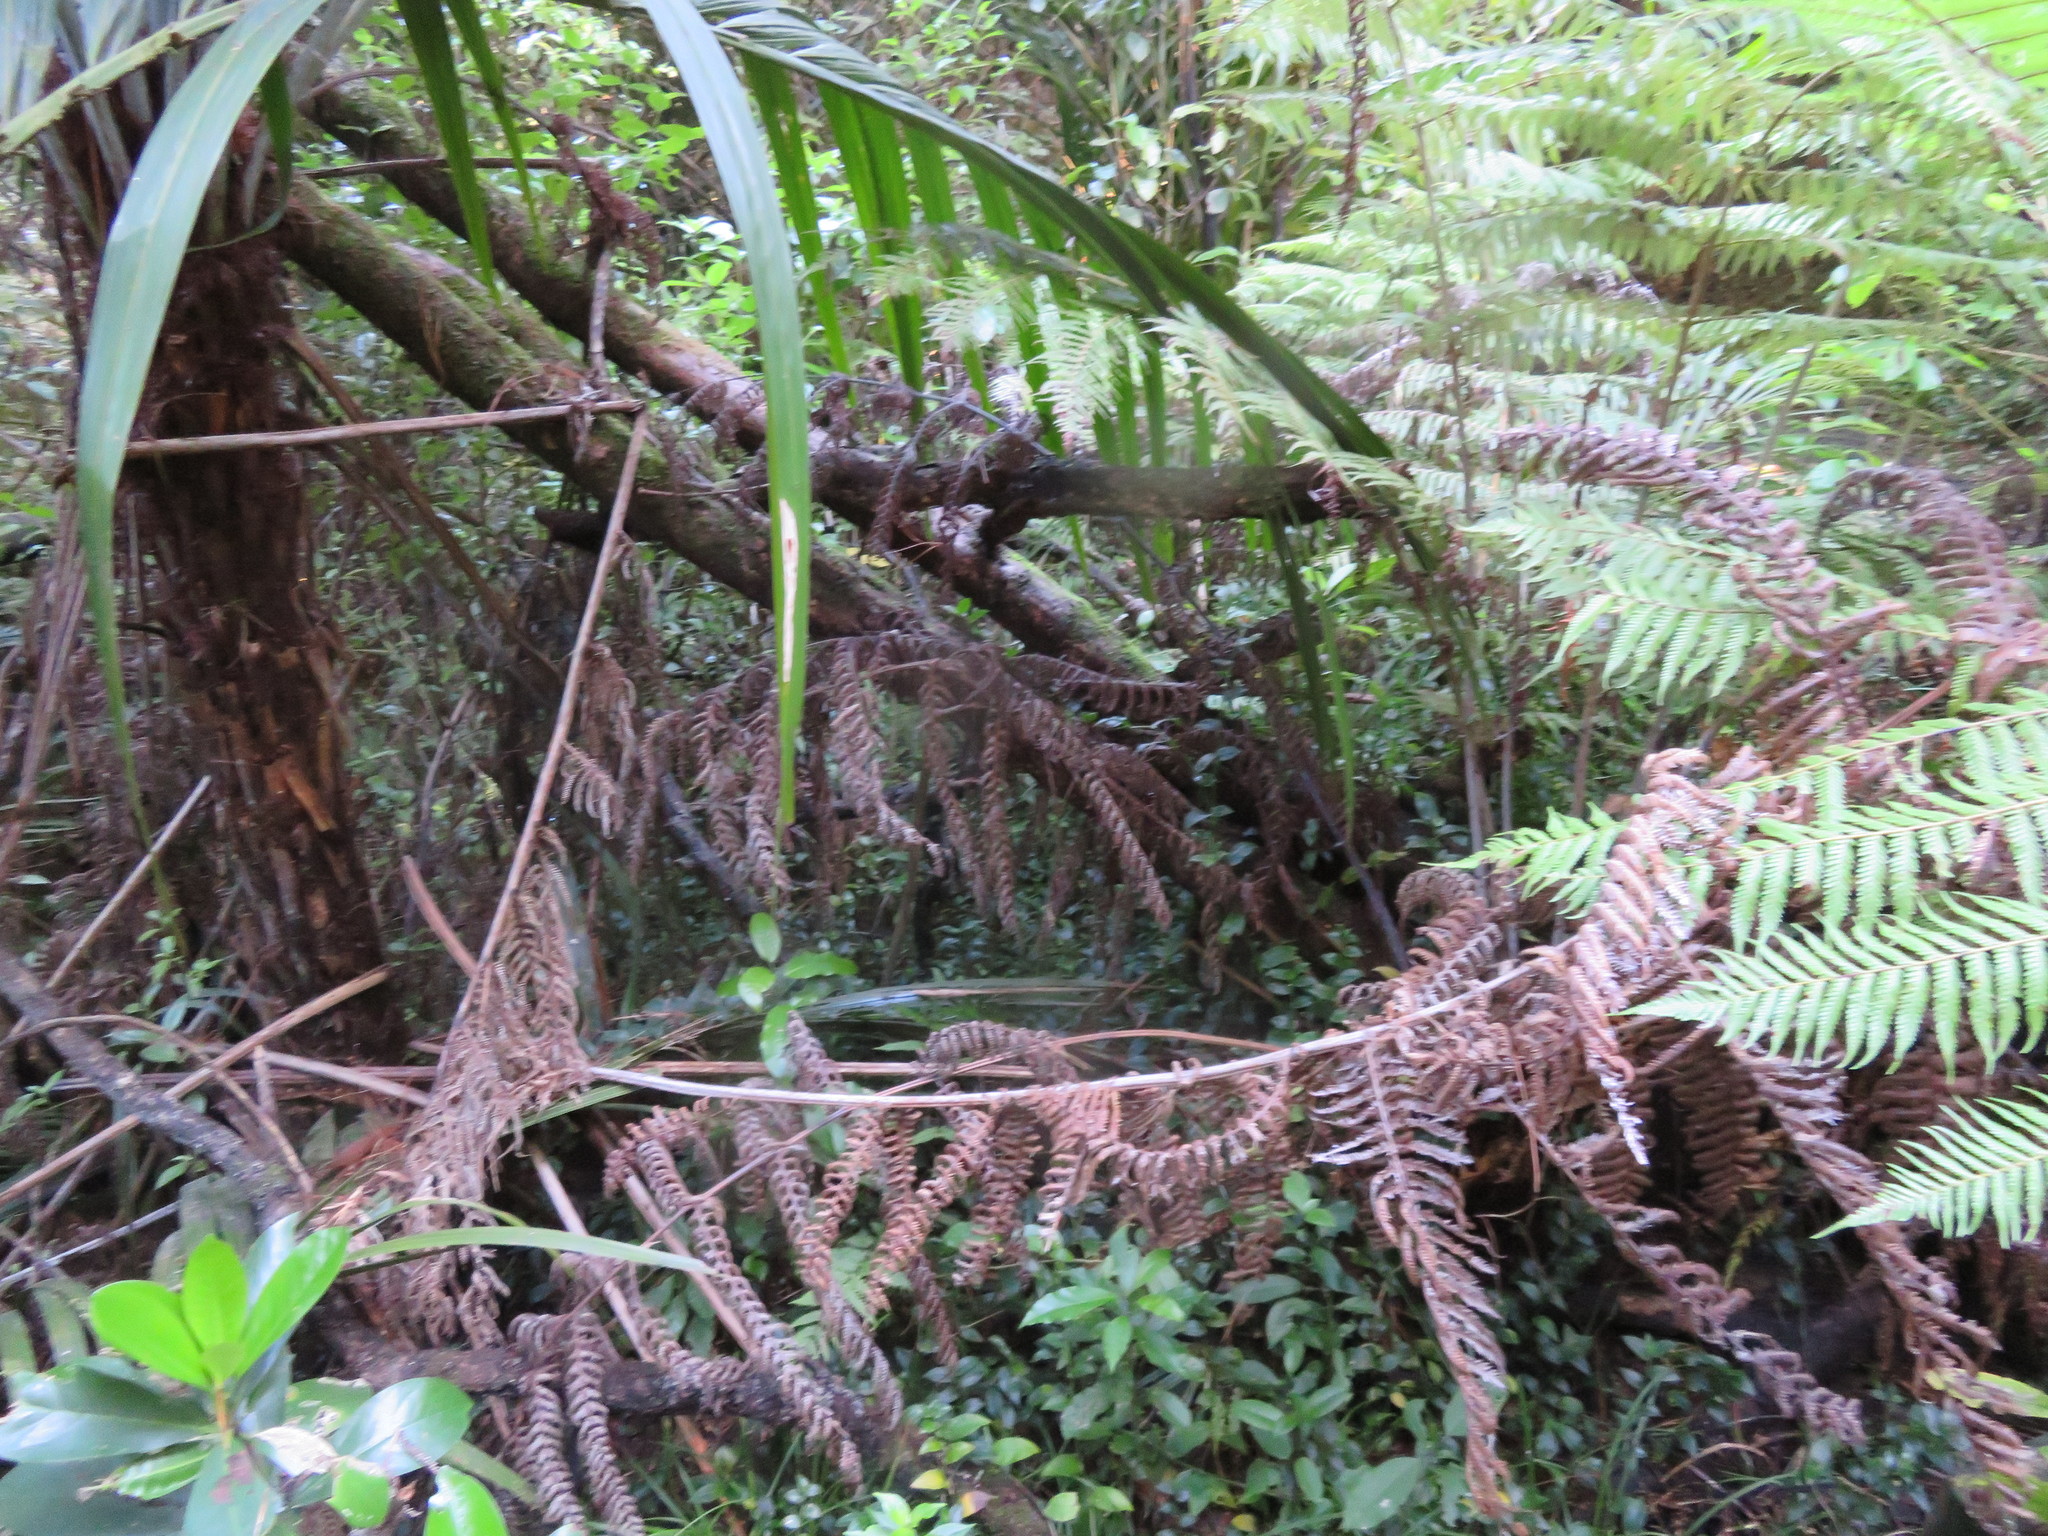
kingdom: Plantae
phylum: Tracheophyta
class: Polypodiopsida
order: Cyatheales
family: Cyatheaceae
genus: Alsophila
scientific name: Alsophila dealbata
